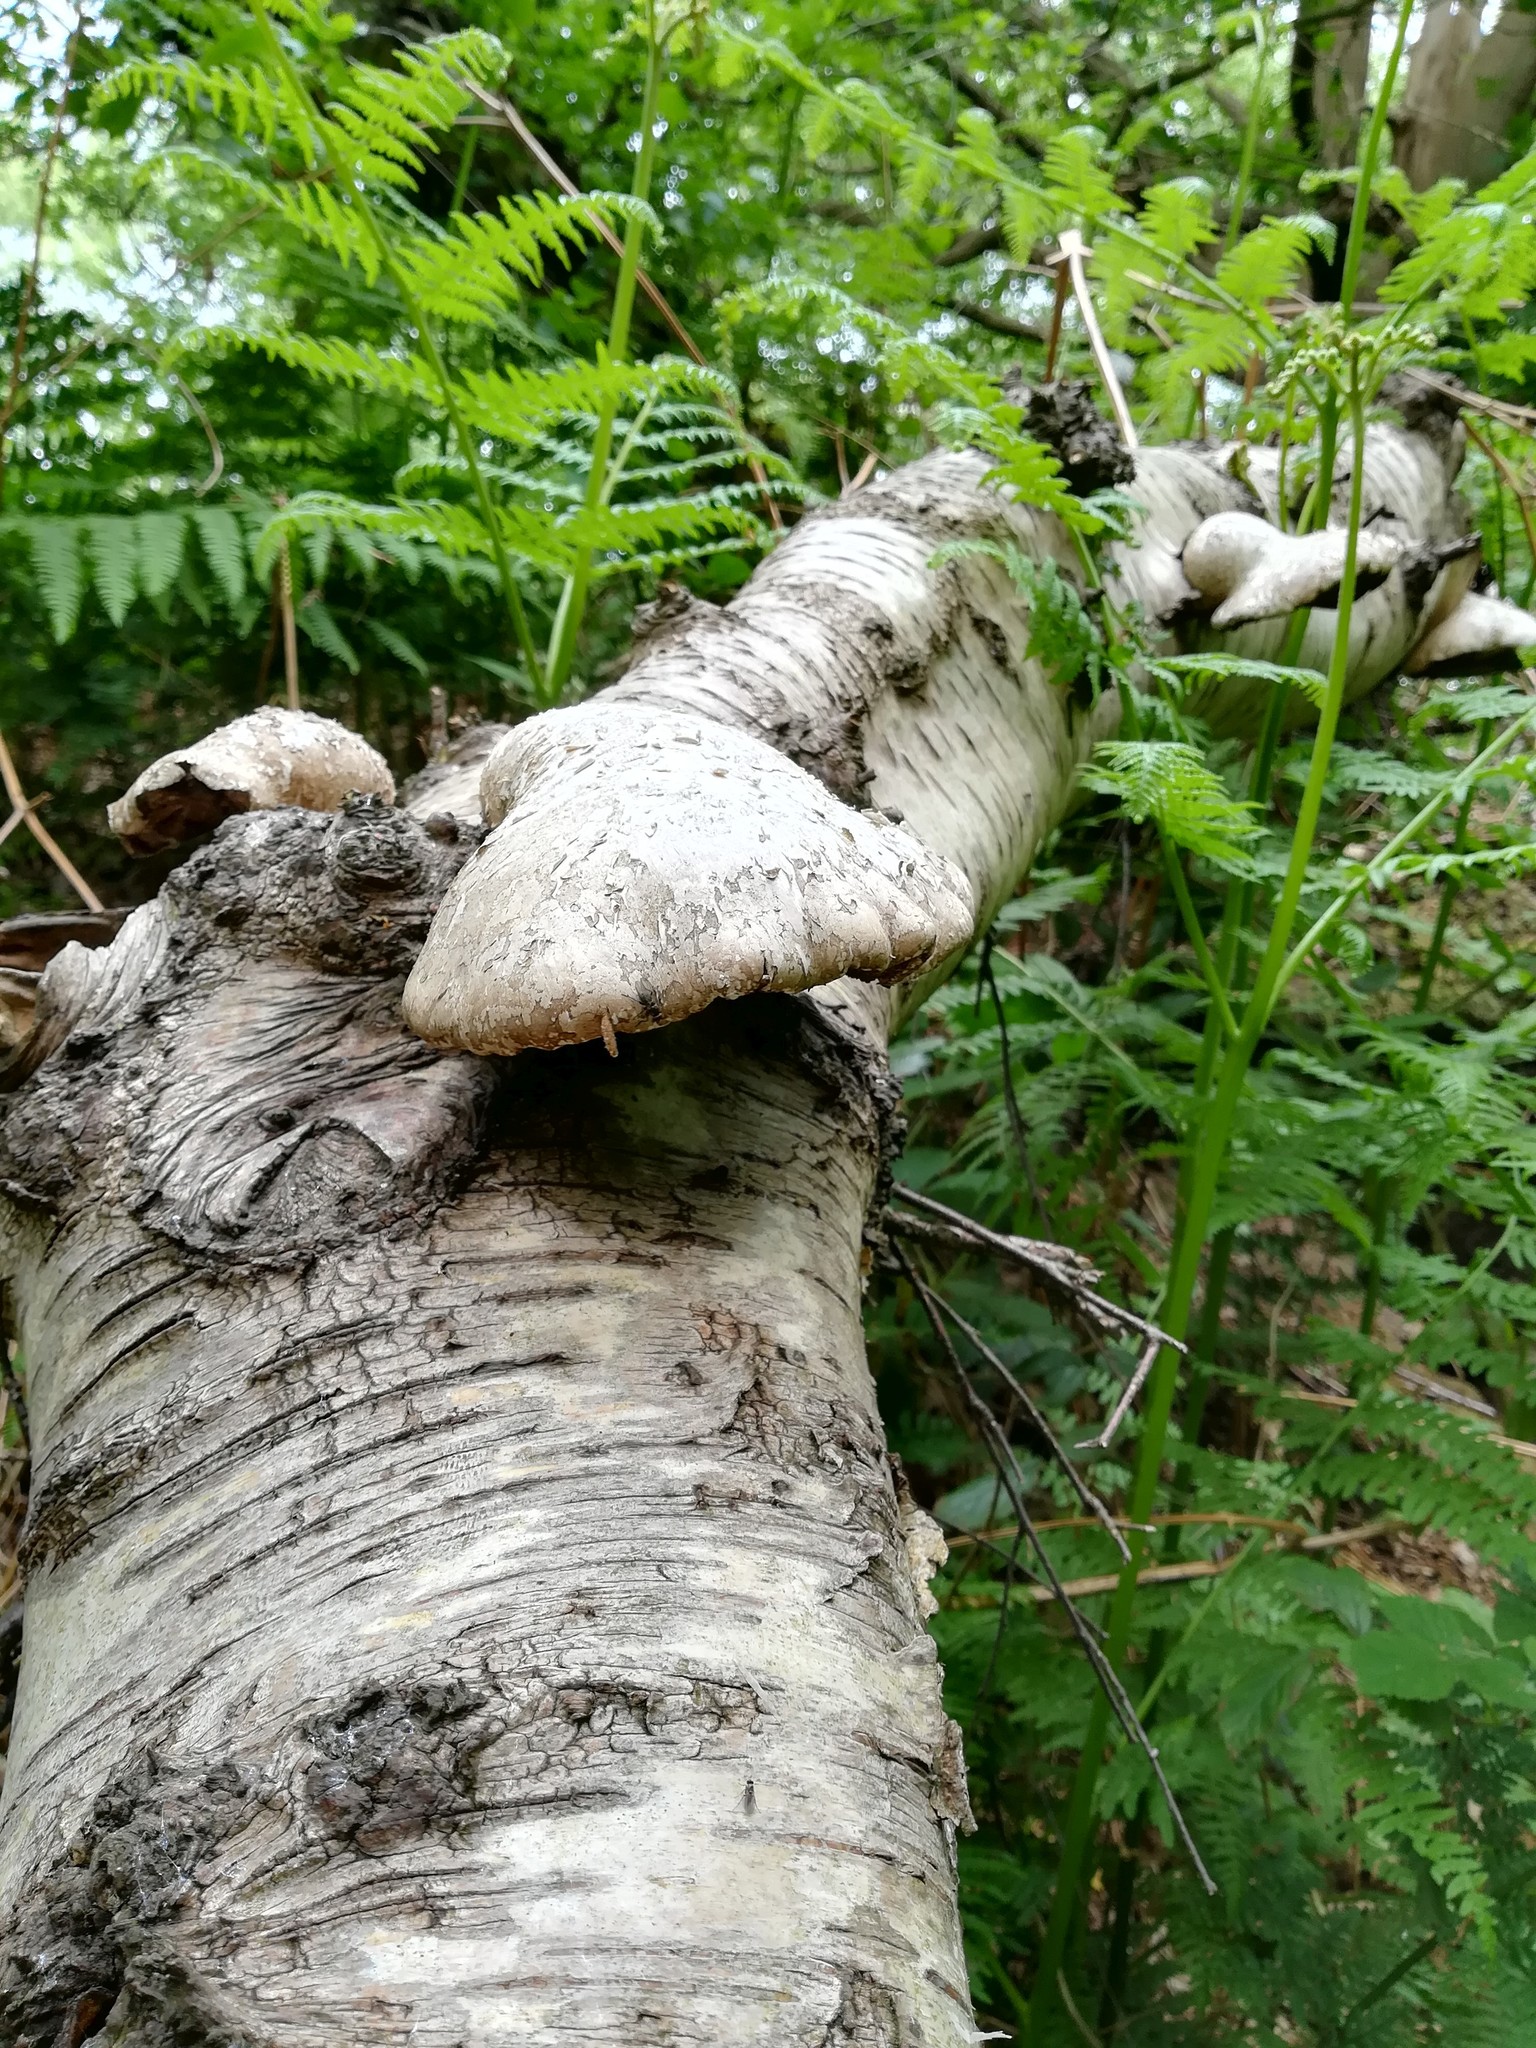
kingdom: Fungi
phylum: Basidiomycota
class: Agaricomycetes
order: Polyporales
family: Fomitopsidaceae
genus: Fomitopsis
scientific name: Fomitopsis betulina
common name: Birch polypore
